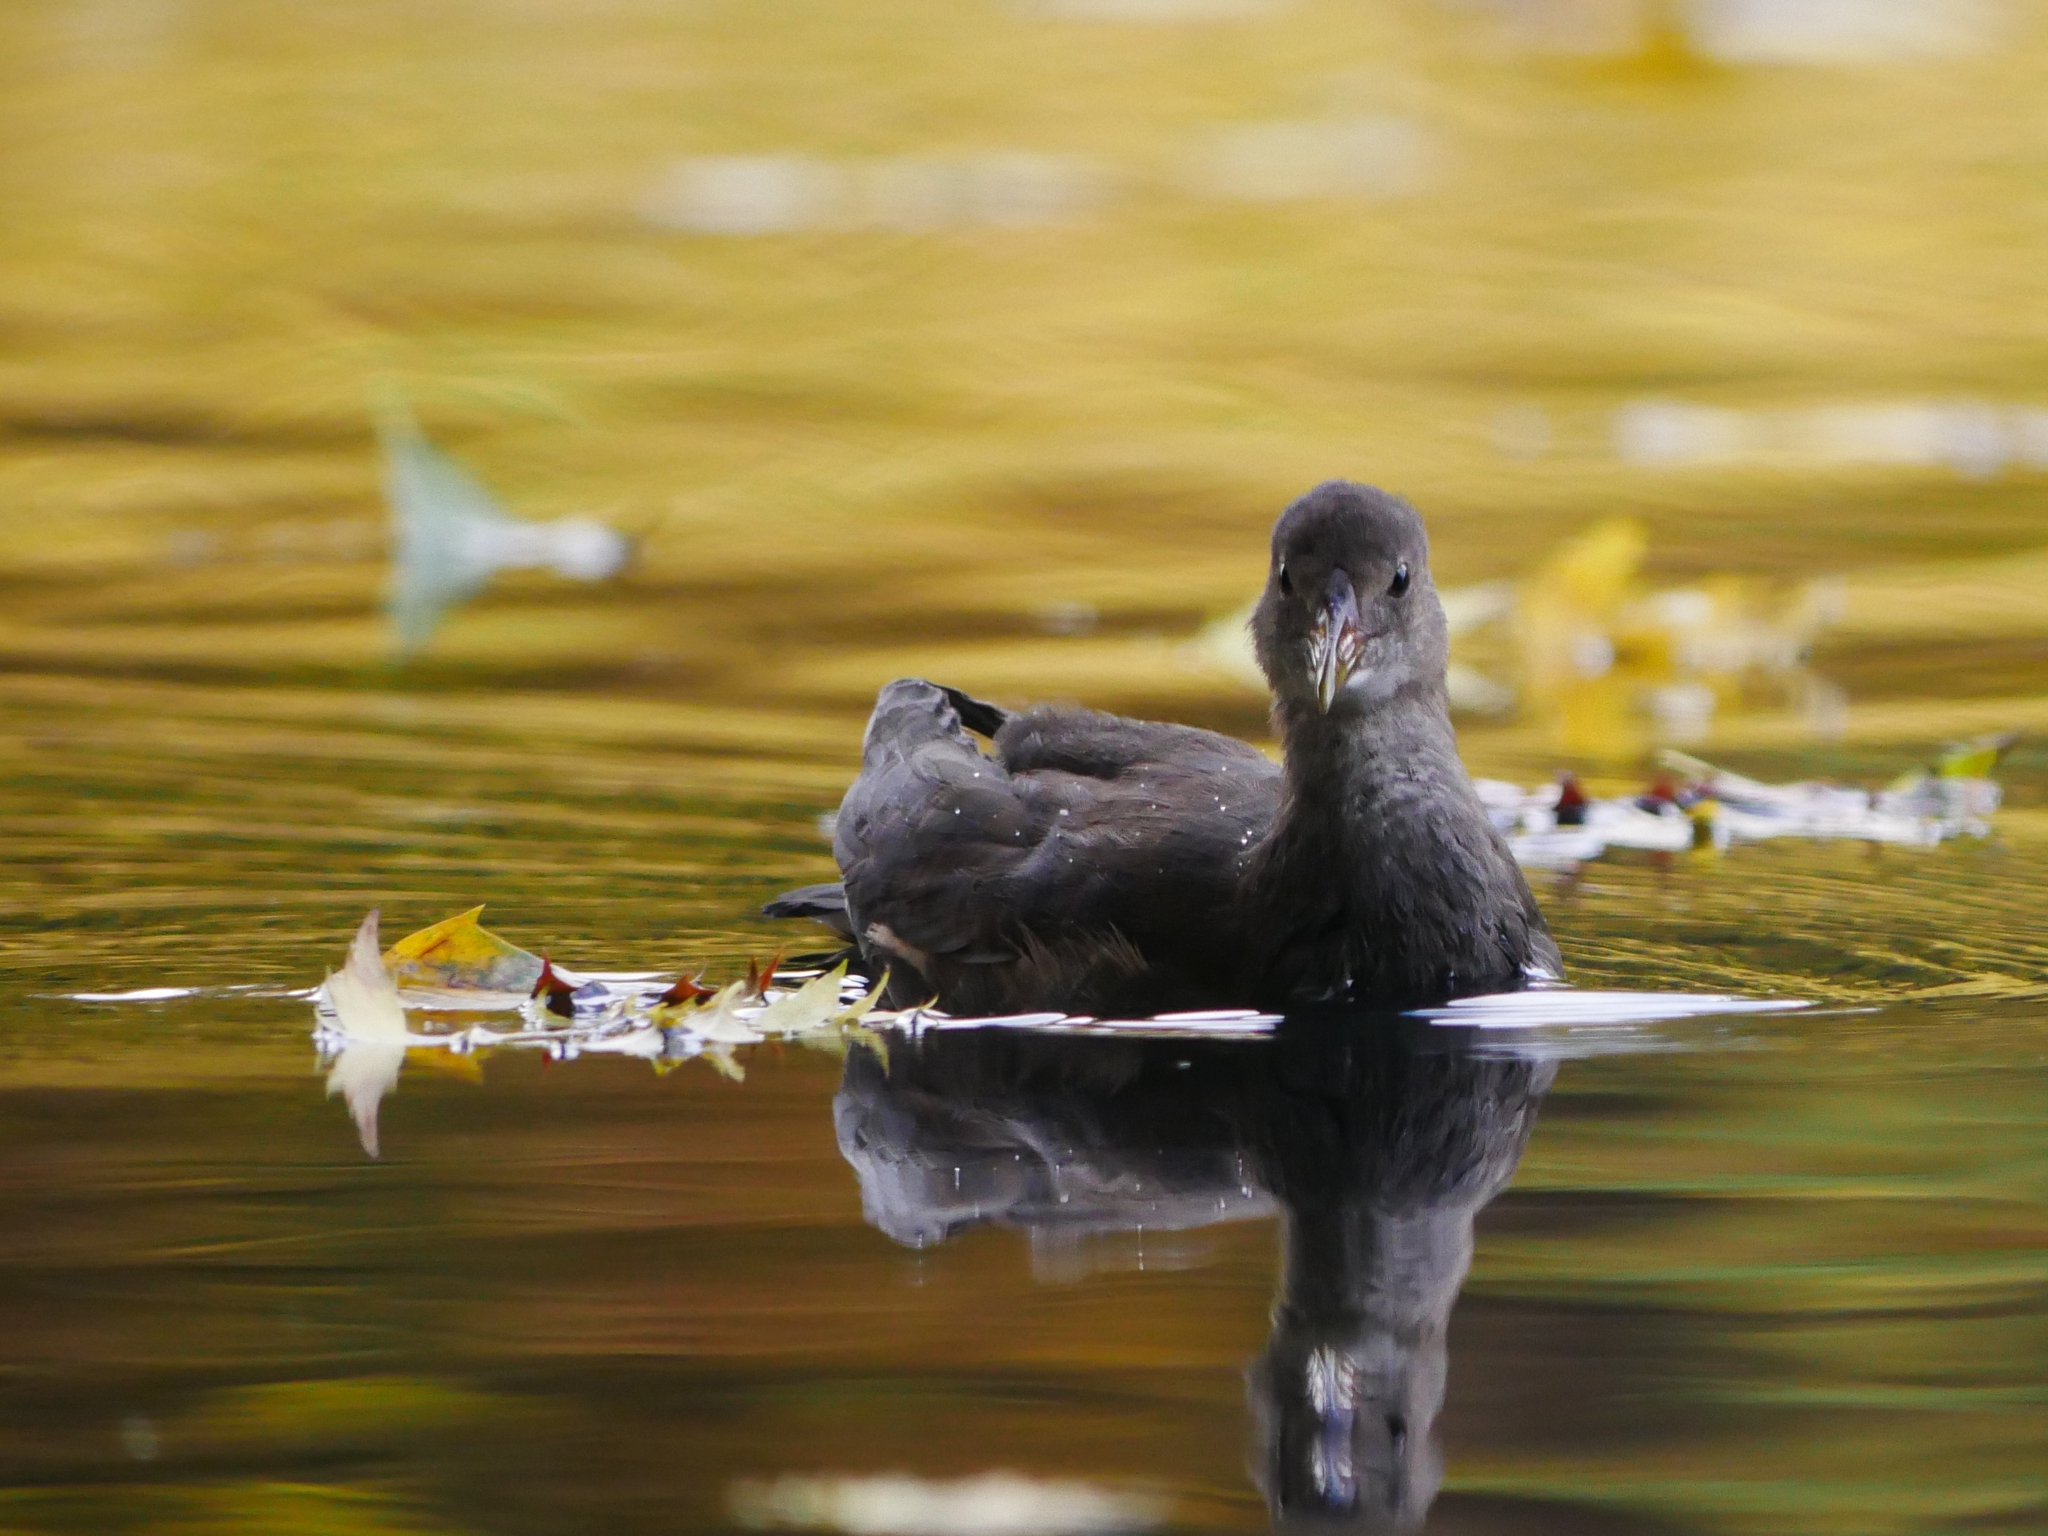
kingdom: Animalia
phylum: Chordata
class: Aves
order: Gruiformes
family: Rallidae
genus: Gallinula
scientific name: Gallinula chloropus
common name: Common moorhen
